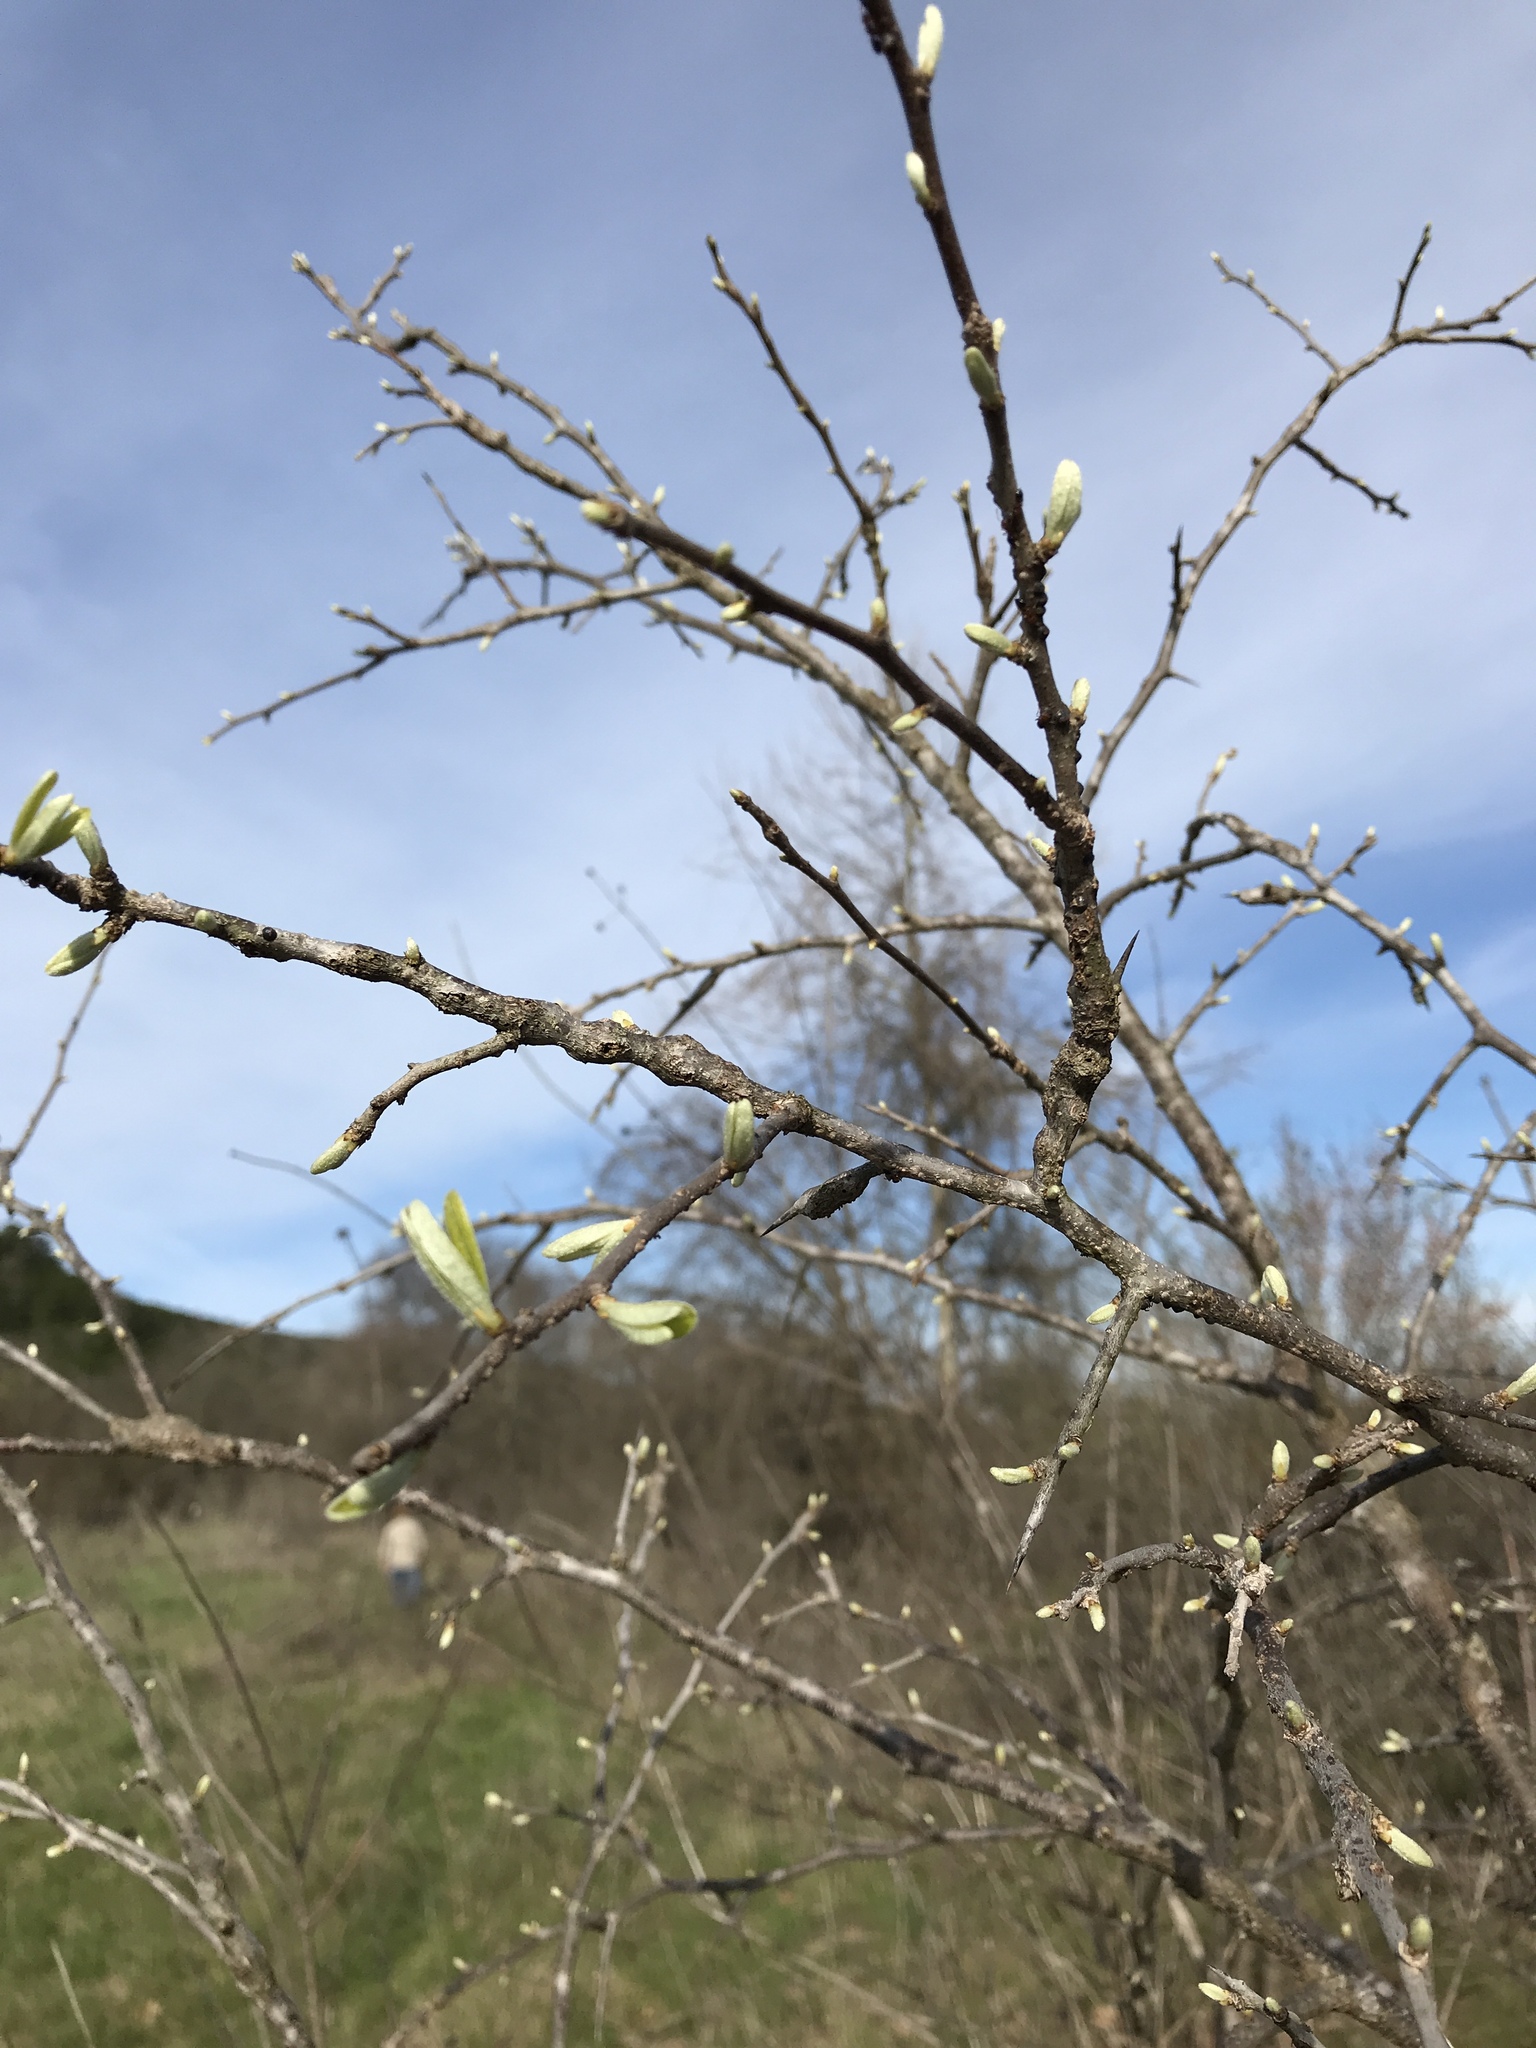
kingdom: Animalia
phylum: Arthropoda
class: Insecta
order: Diptera
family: Cecidomyiidae
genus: Bruggmanniella
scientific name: Bruggmanniella bumeliae
